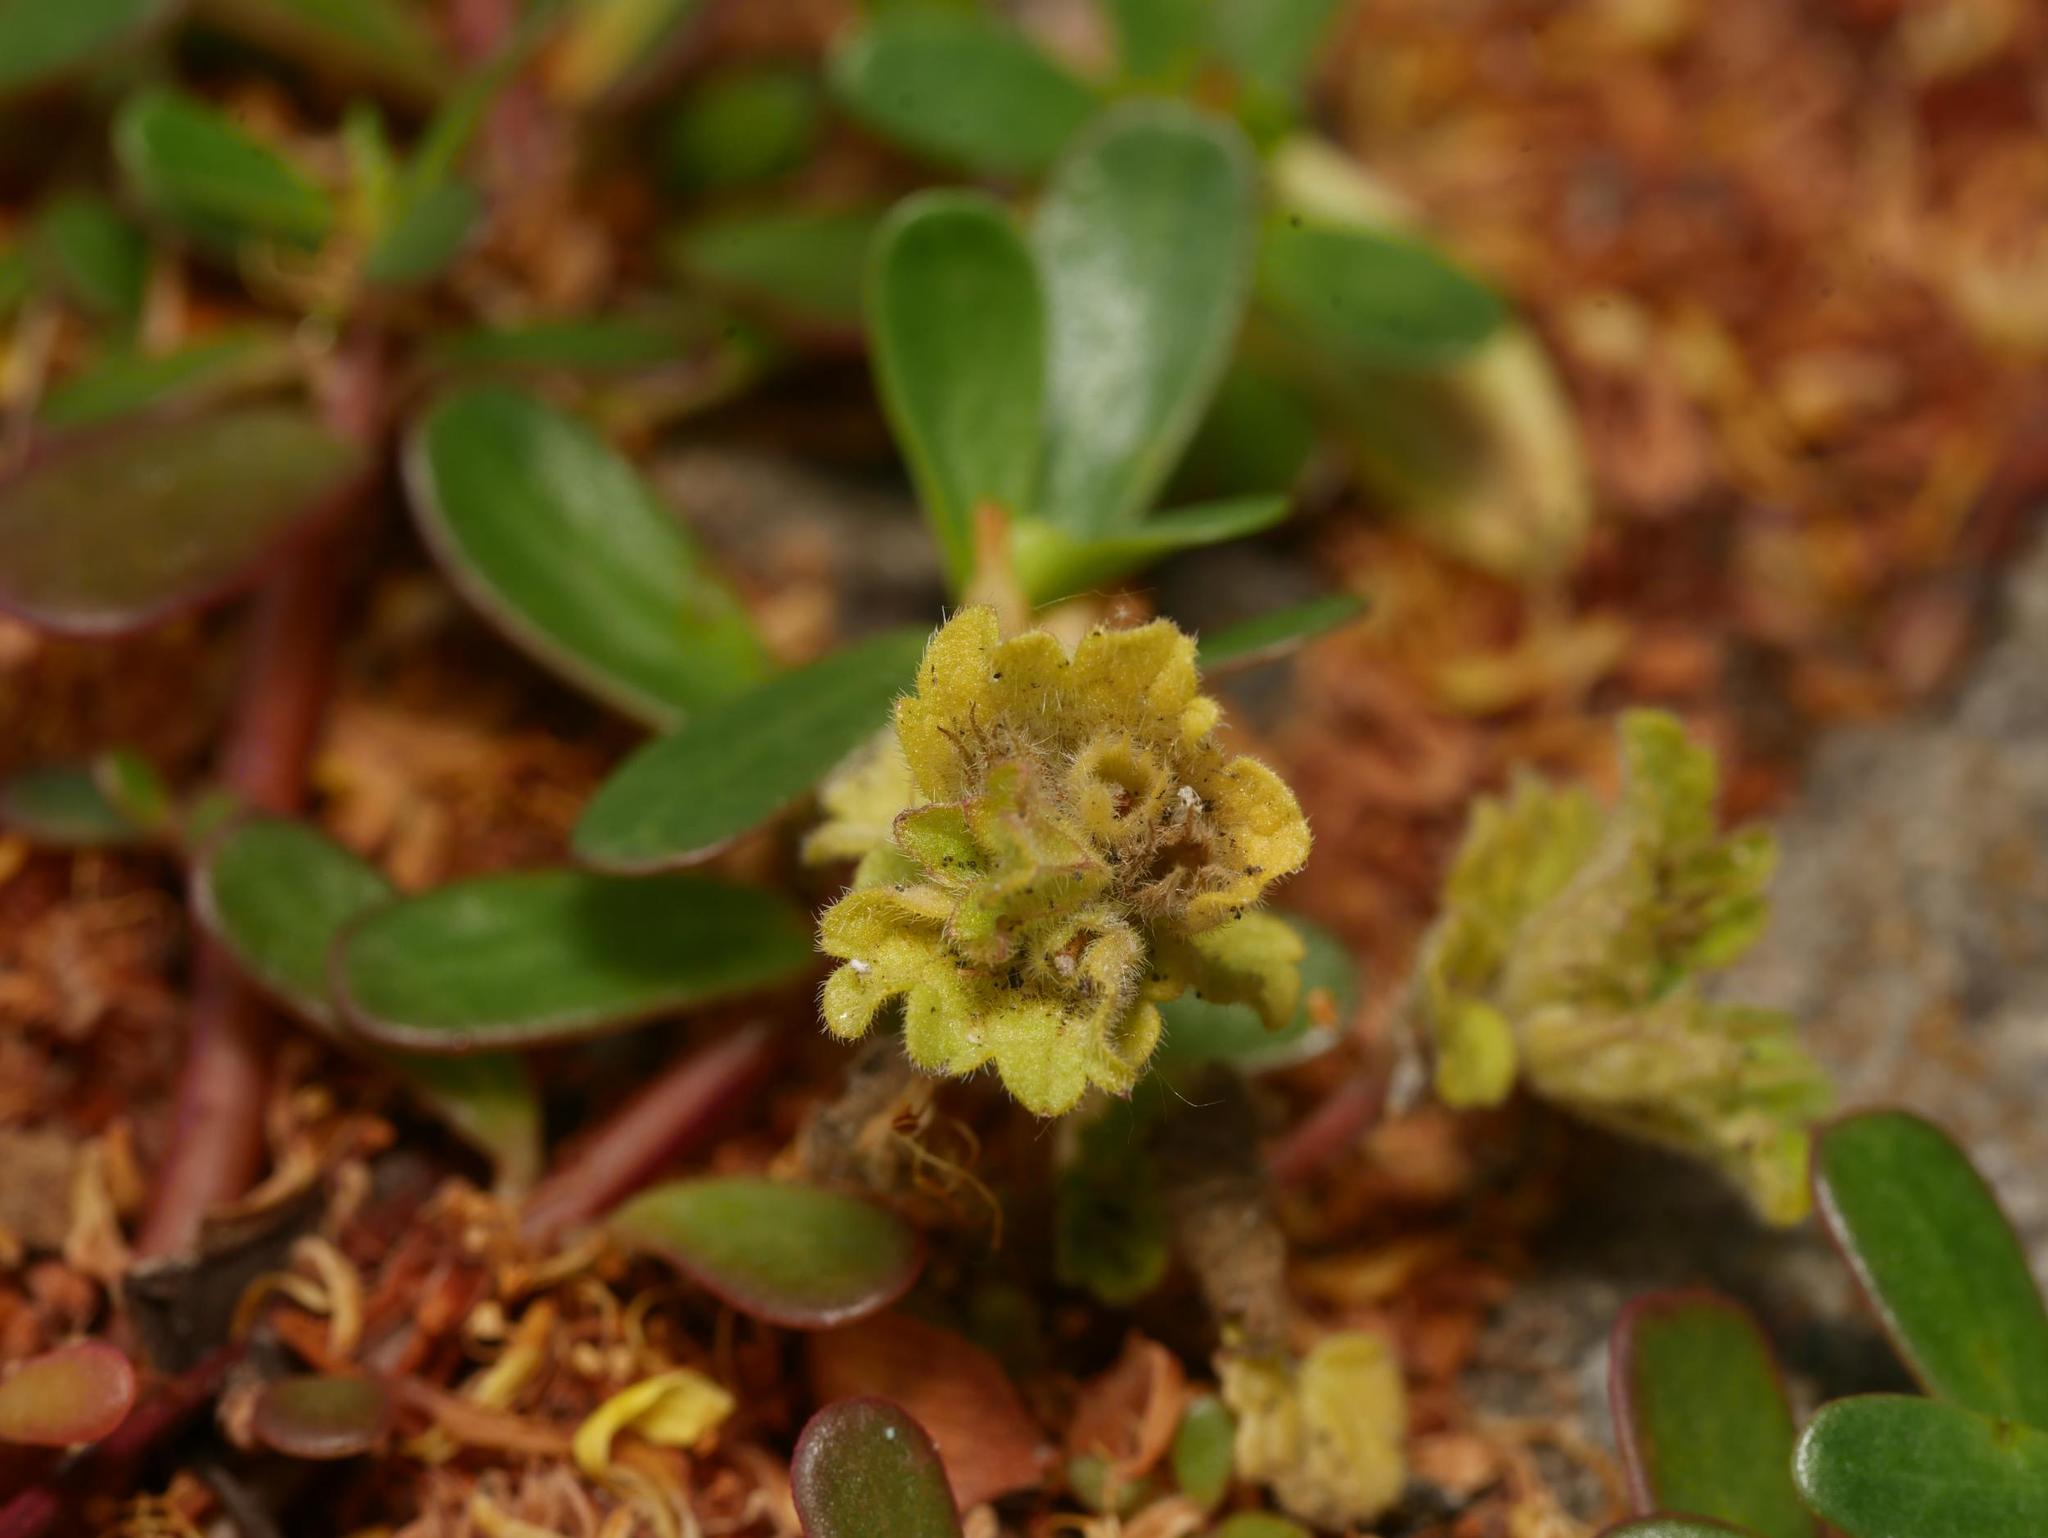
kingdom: Plantae
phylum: Tracheophyta
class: Magnoliopsida
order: Lamiales
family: Lamiaceae
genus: Lamium
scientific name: Lamium amplexicaule
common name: Henbit dead-nettle
